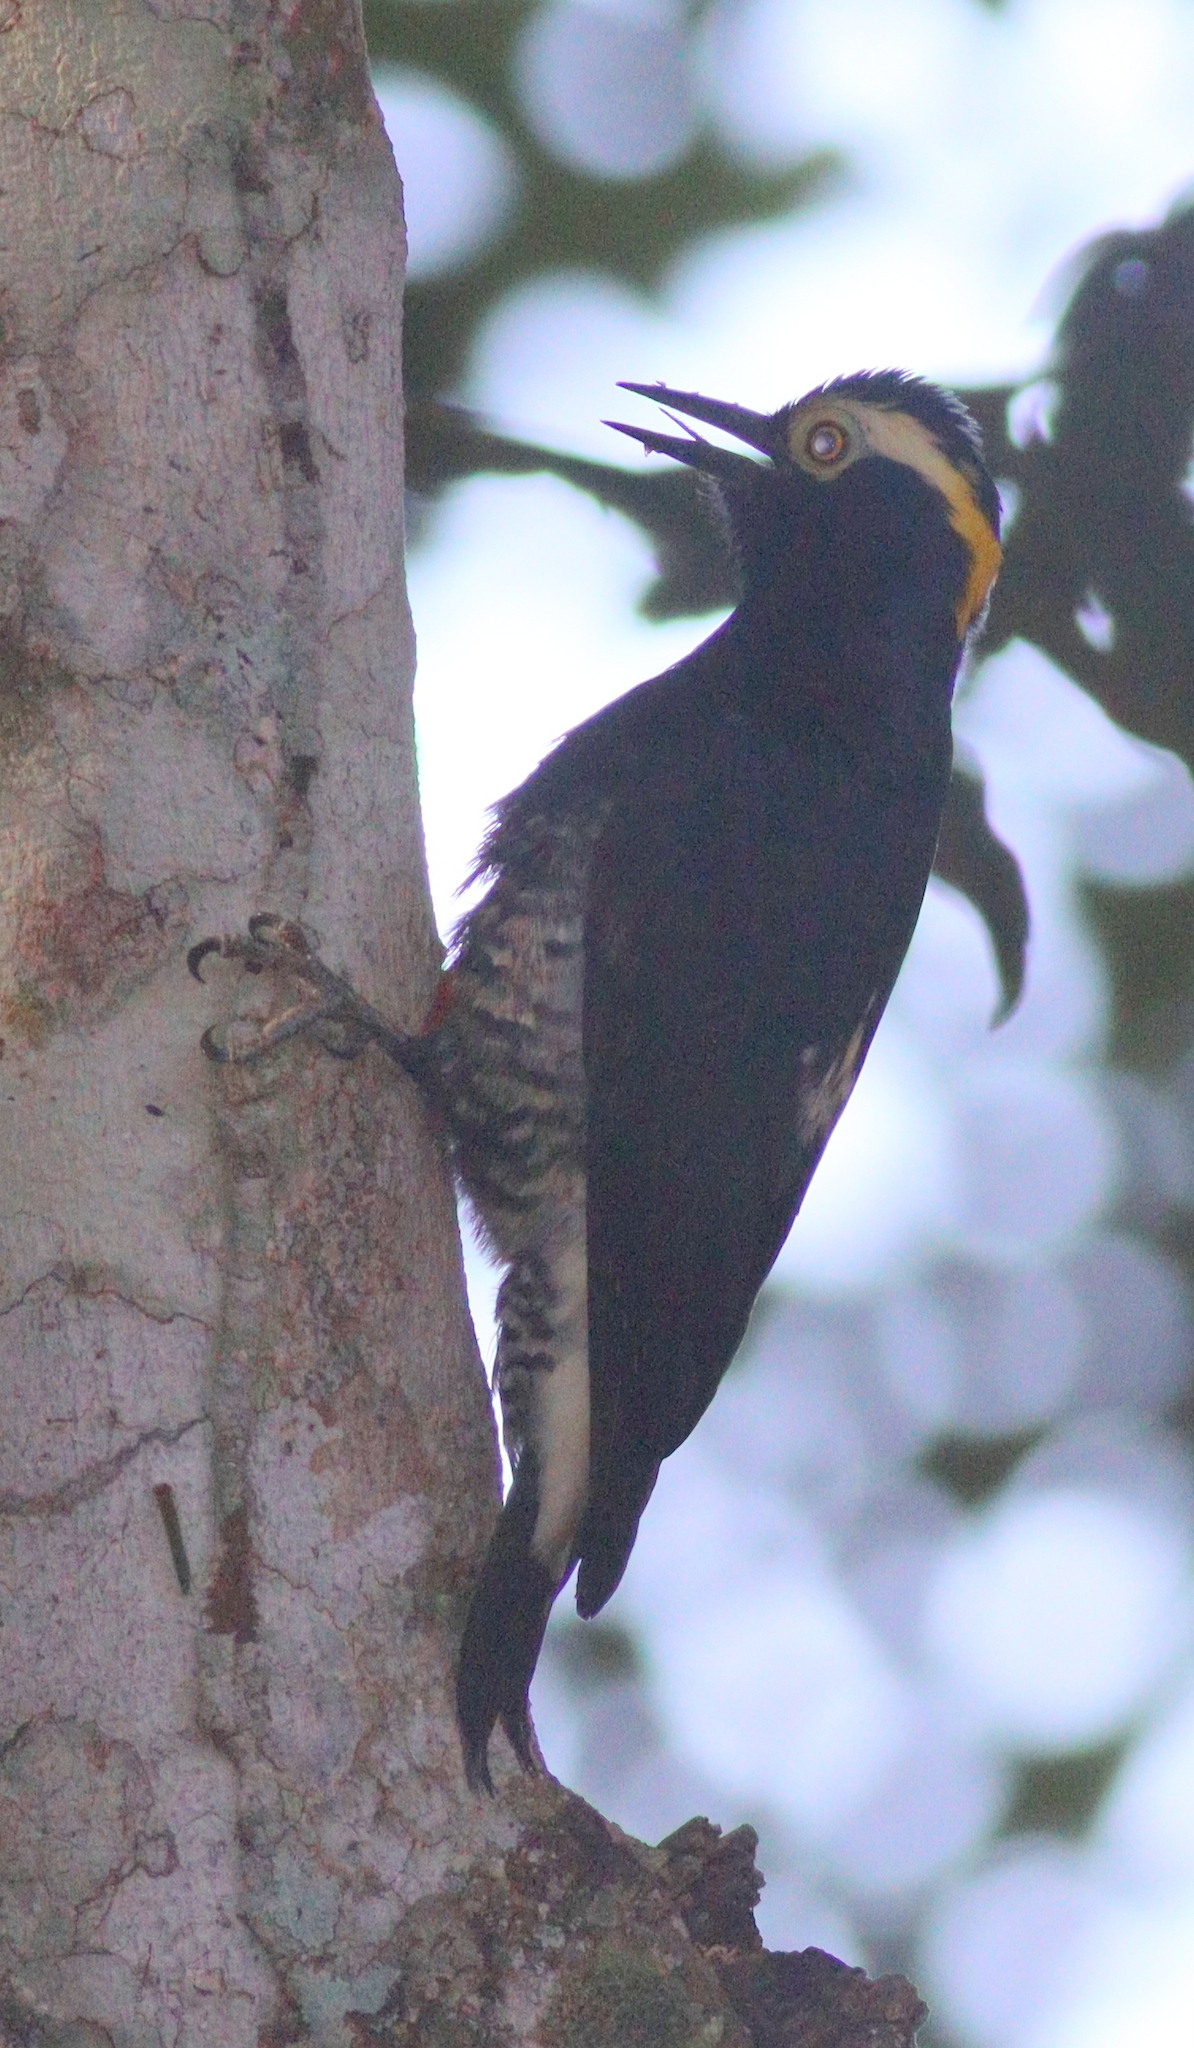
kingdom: Animalia
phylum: Chordata
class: Aves
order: Piciformes
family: Picidae
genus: Melanerpes
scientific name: Melanerpes cruentatus
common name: Yellow-tufted woodpecker
